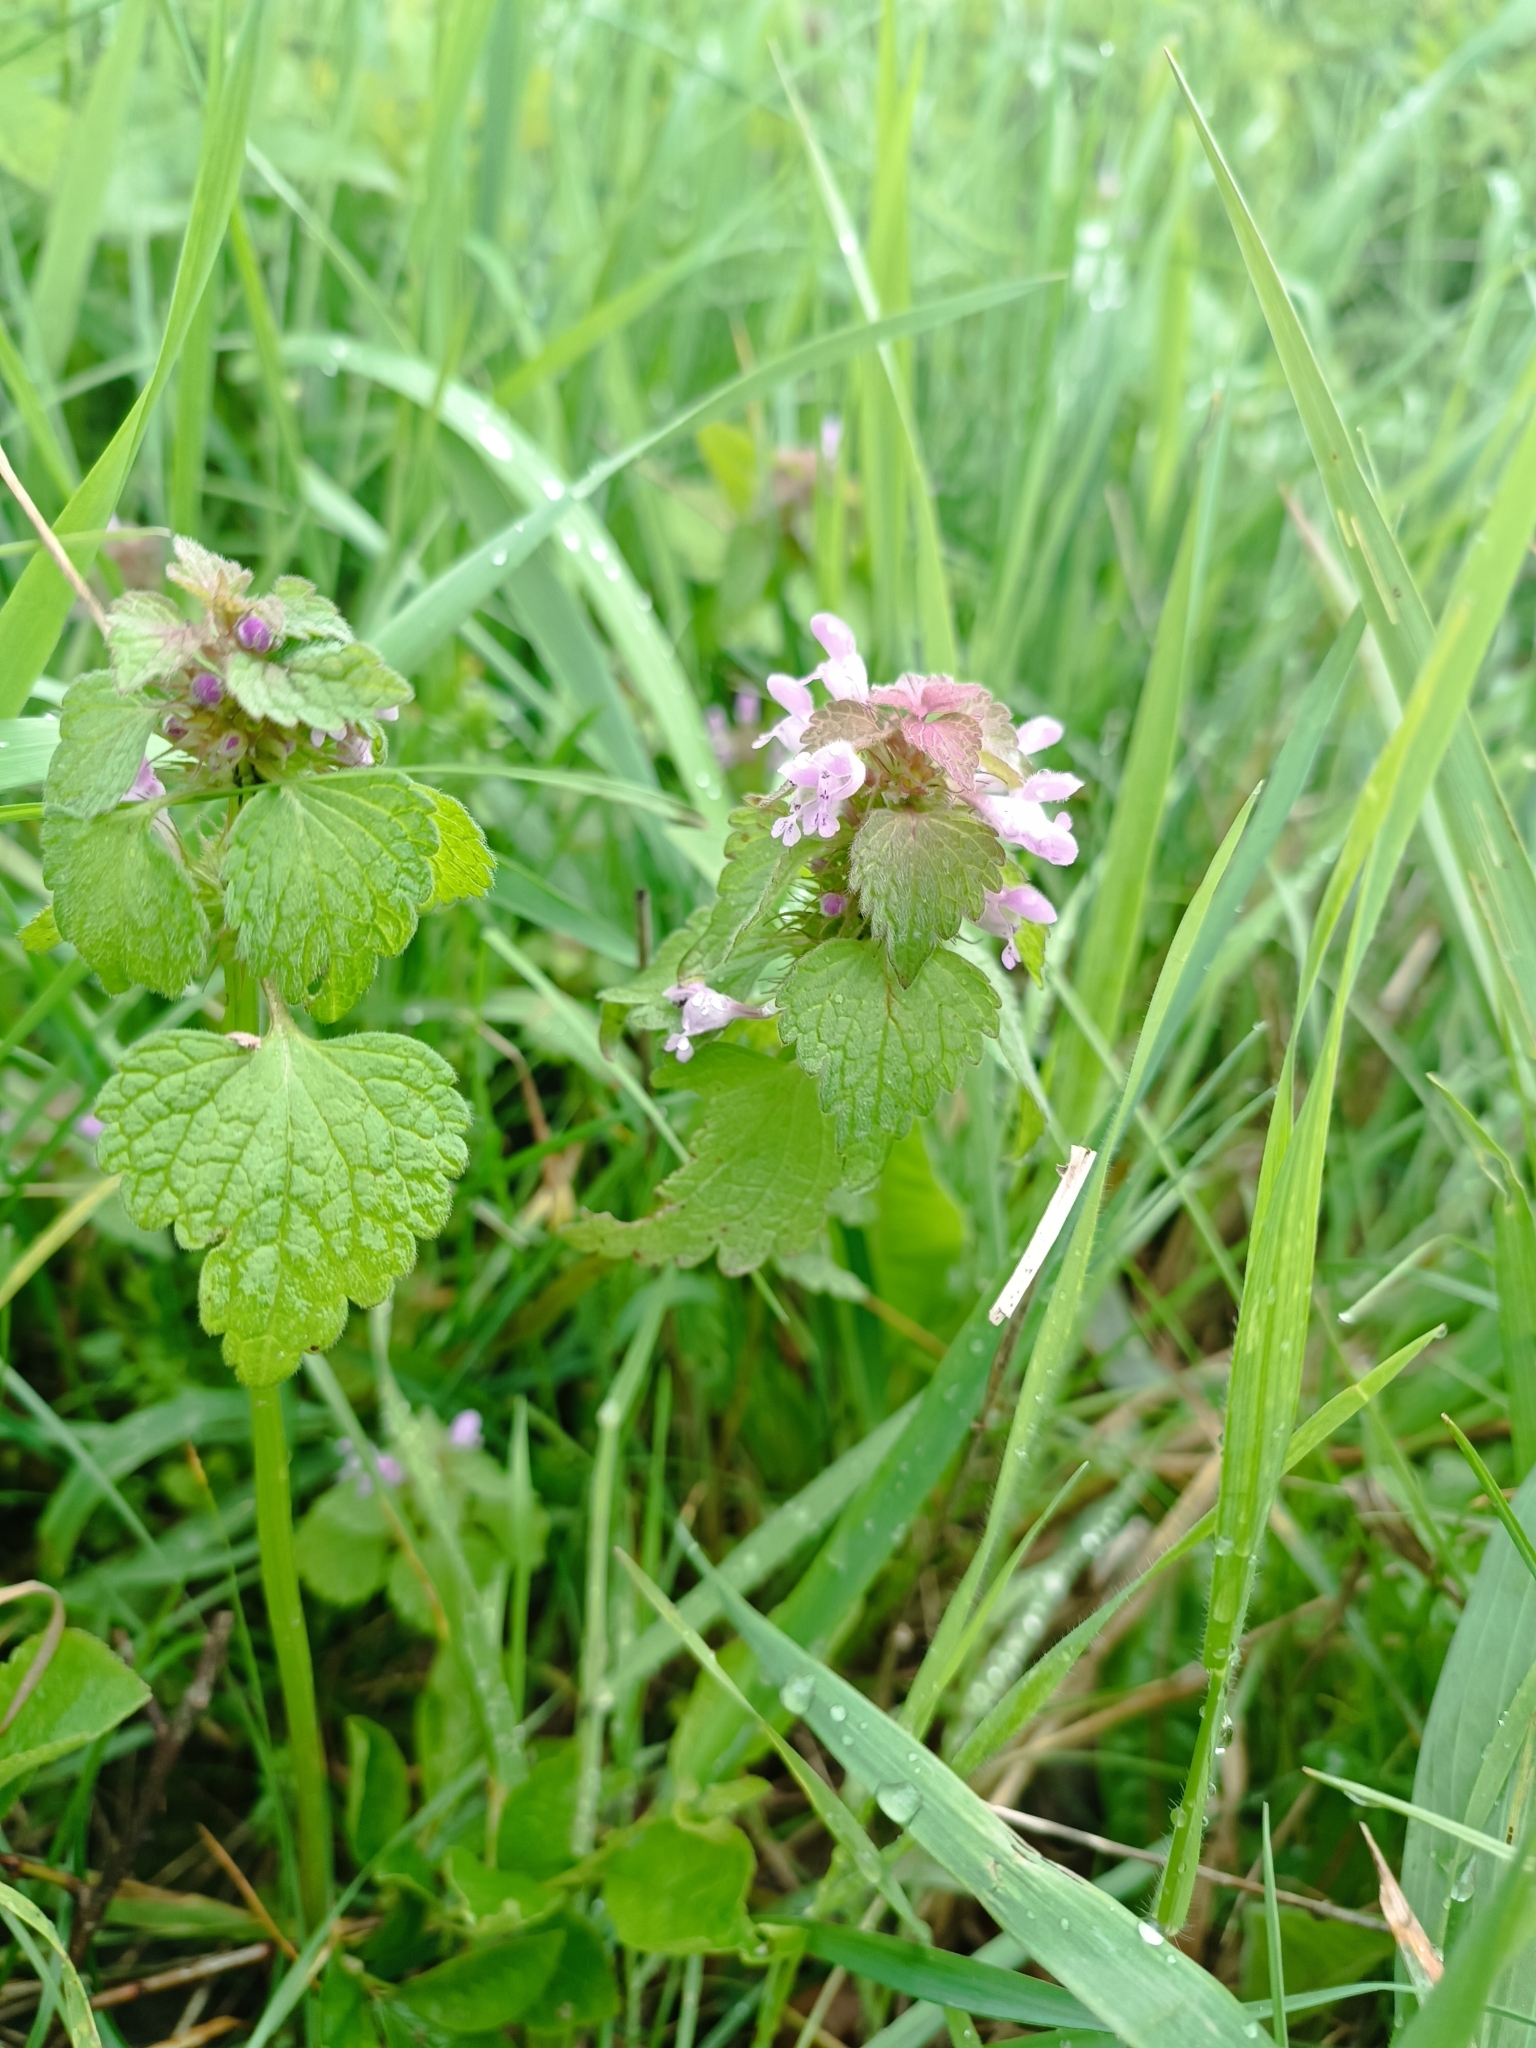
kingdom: Plantae
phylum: Tracheophyta
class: Magnoliopsida
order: Lamiales
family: Lamiaceae
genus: Lamium
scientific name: Lamium purpureum
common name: Red dead-nettle
